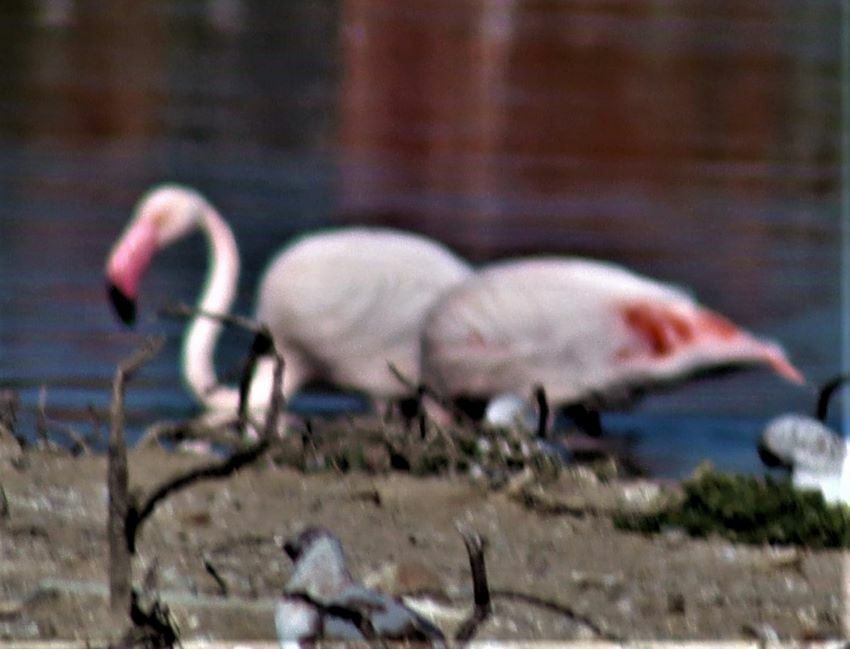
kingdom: Animalia
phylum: Chordata
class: Aves
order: Phoenicopteriformes
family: Phoenicopteridae
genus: Phoenicopterus
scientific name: Phoenicopterus roseus
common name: Greater flamingo
